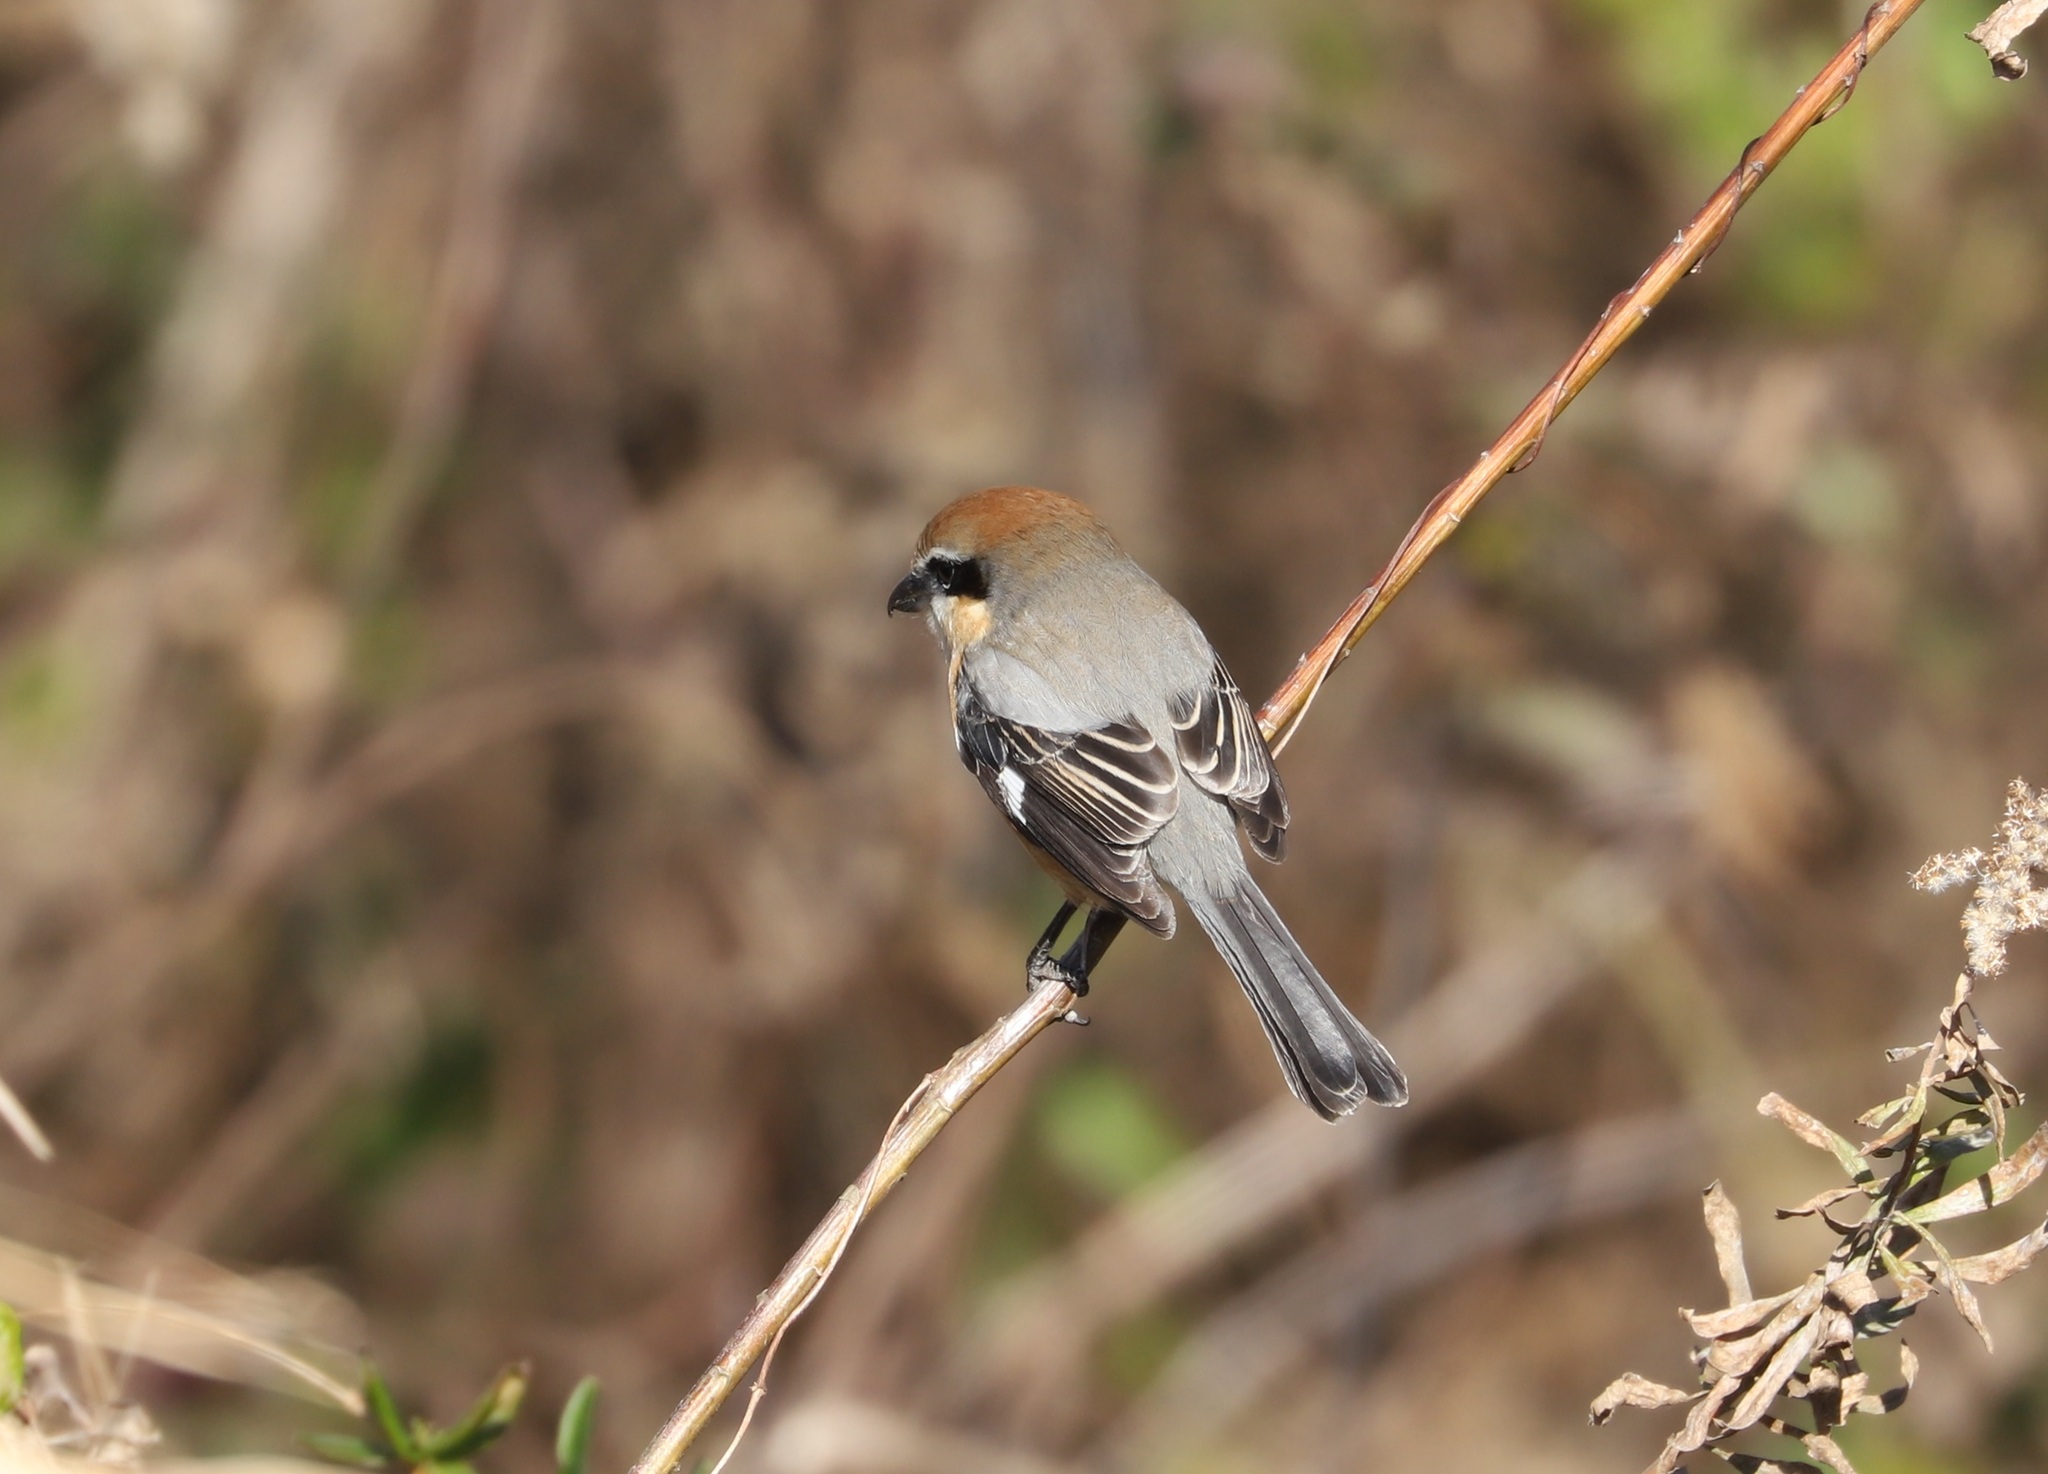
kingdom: Animalia
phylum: Chordata
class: Aves
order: Passeriformes
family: Laniidae
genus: Lanius
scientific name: Lanius bucephalus
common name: Bull-headed shrike
